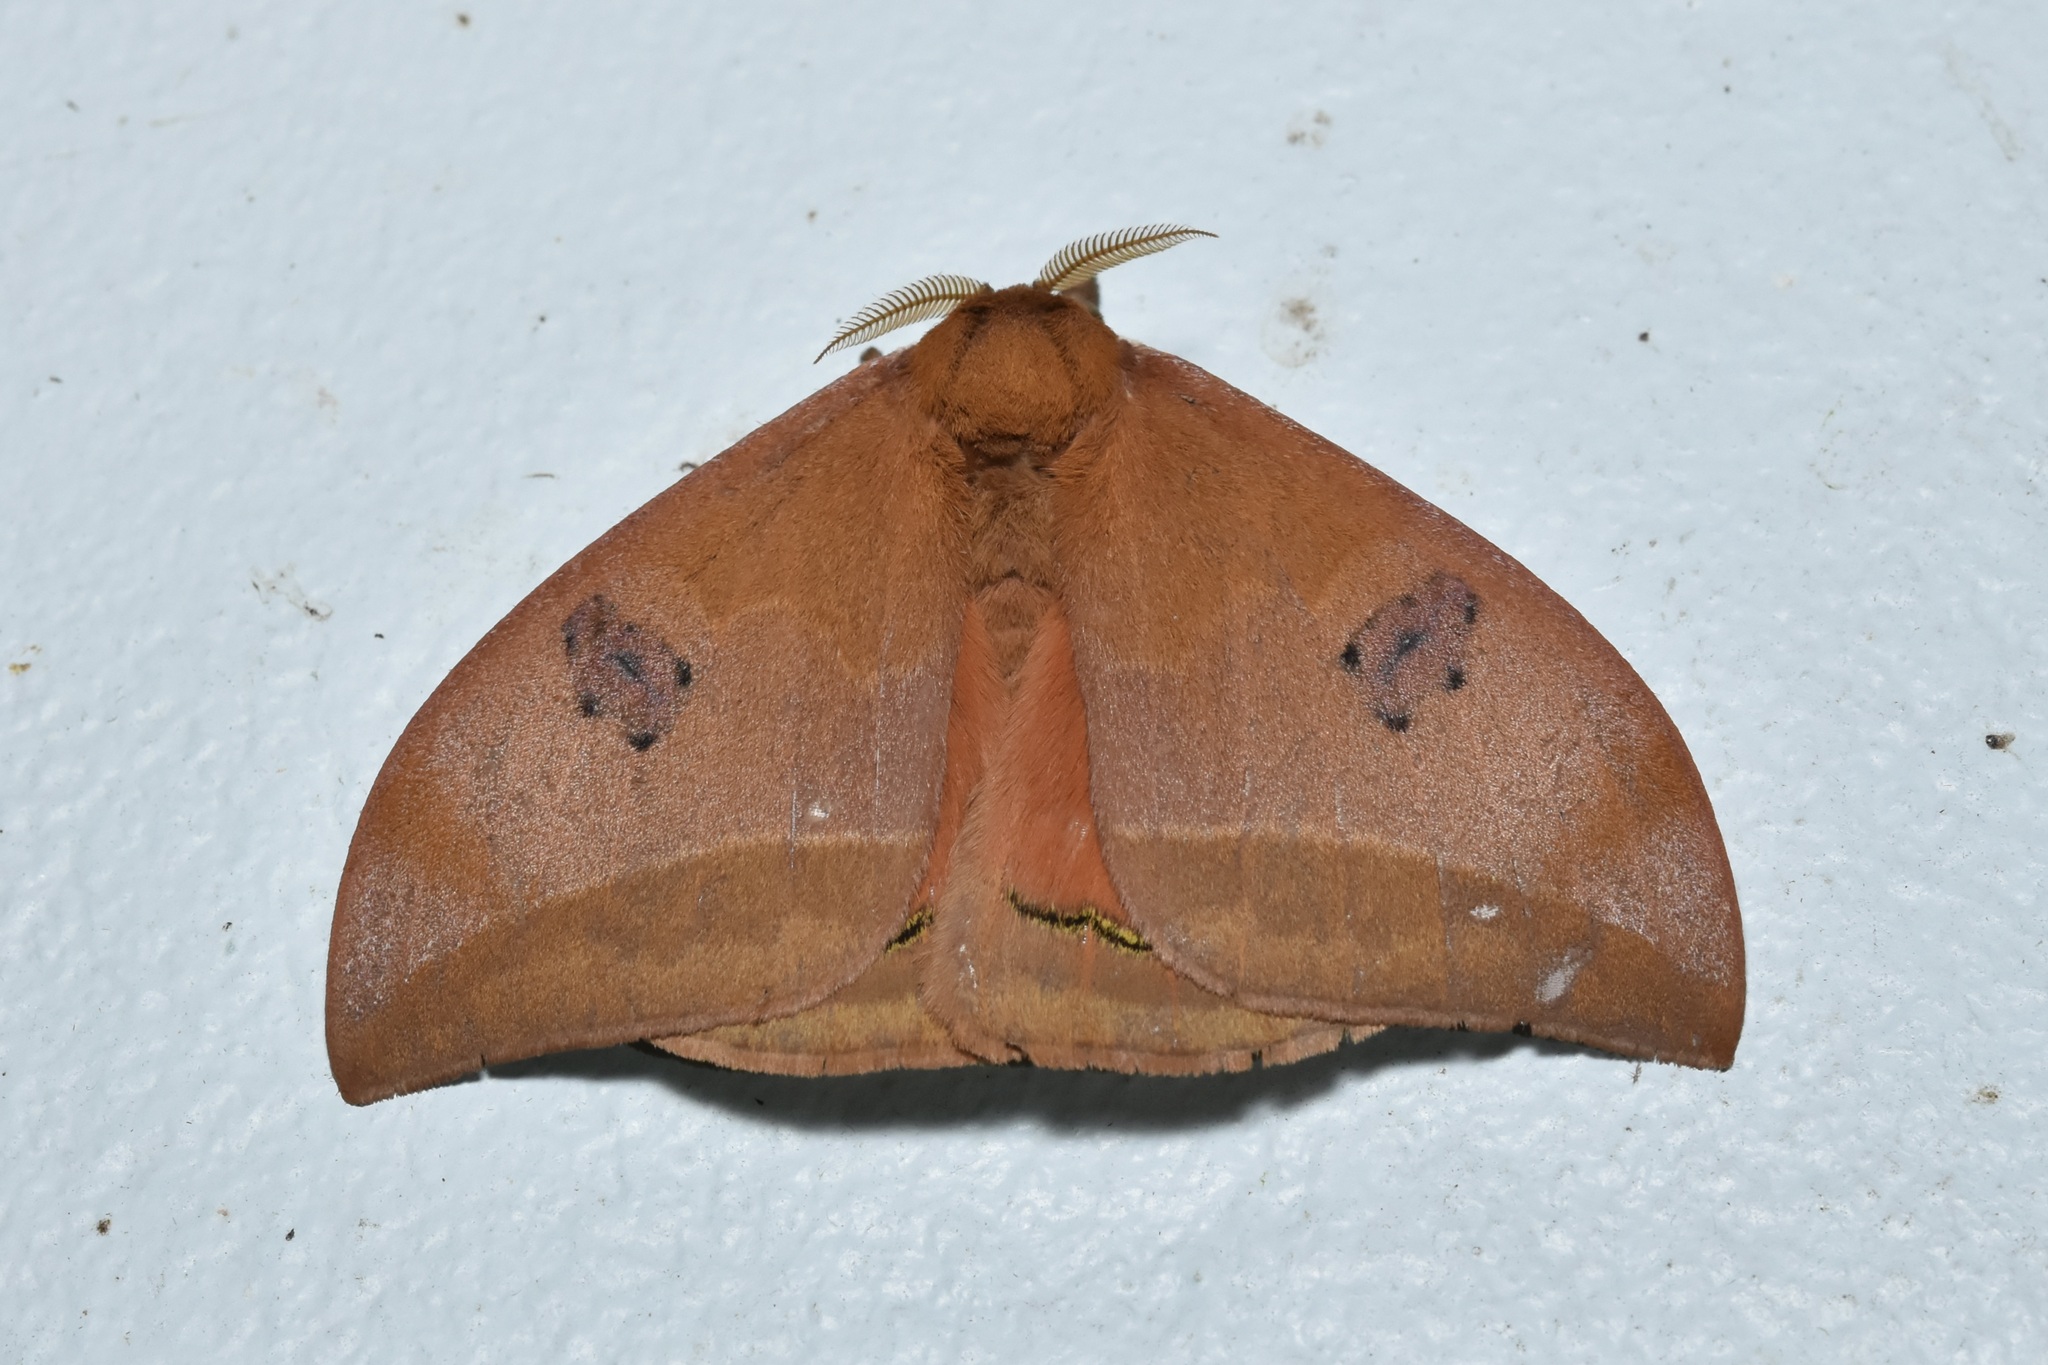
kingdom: Animalia
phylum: Arthropoda
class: Insecta
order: Lepidoptera
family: Saturniidae
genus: Automeris
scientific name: Automeris midea
